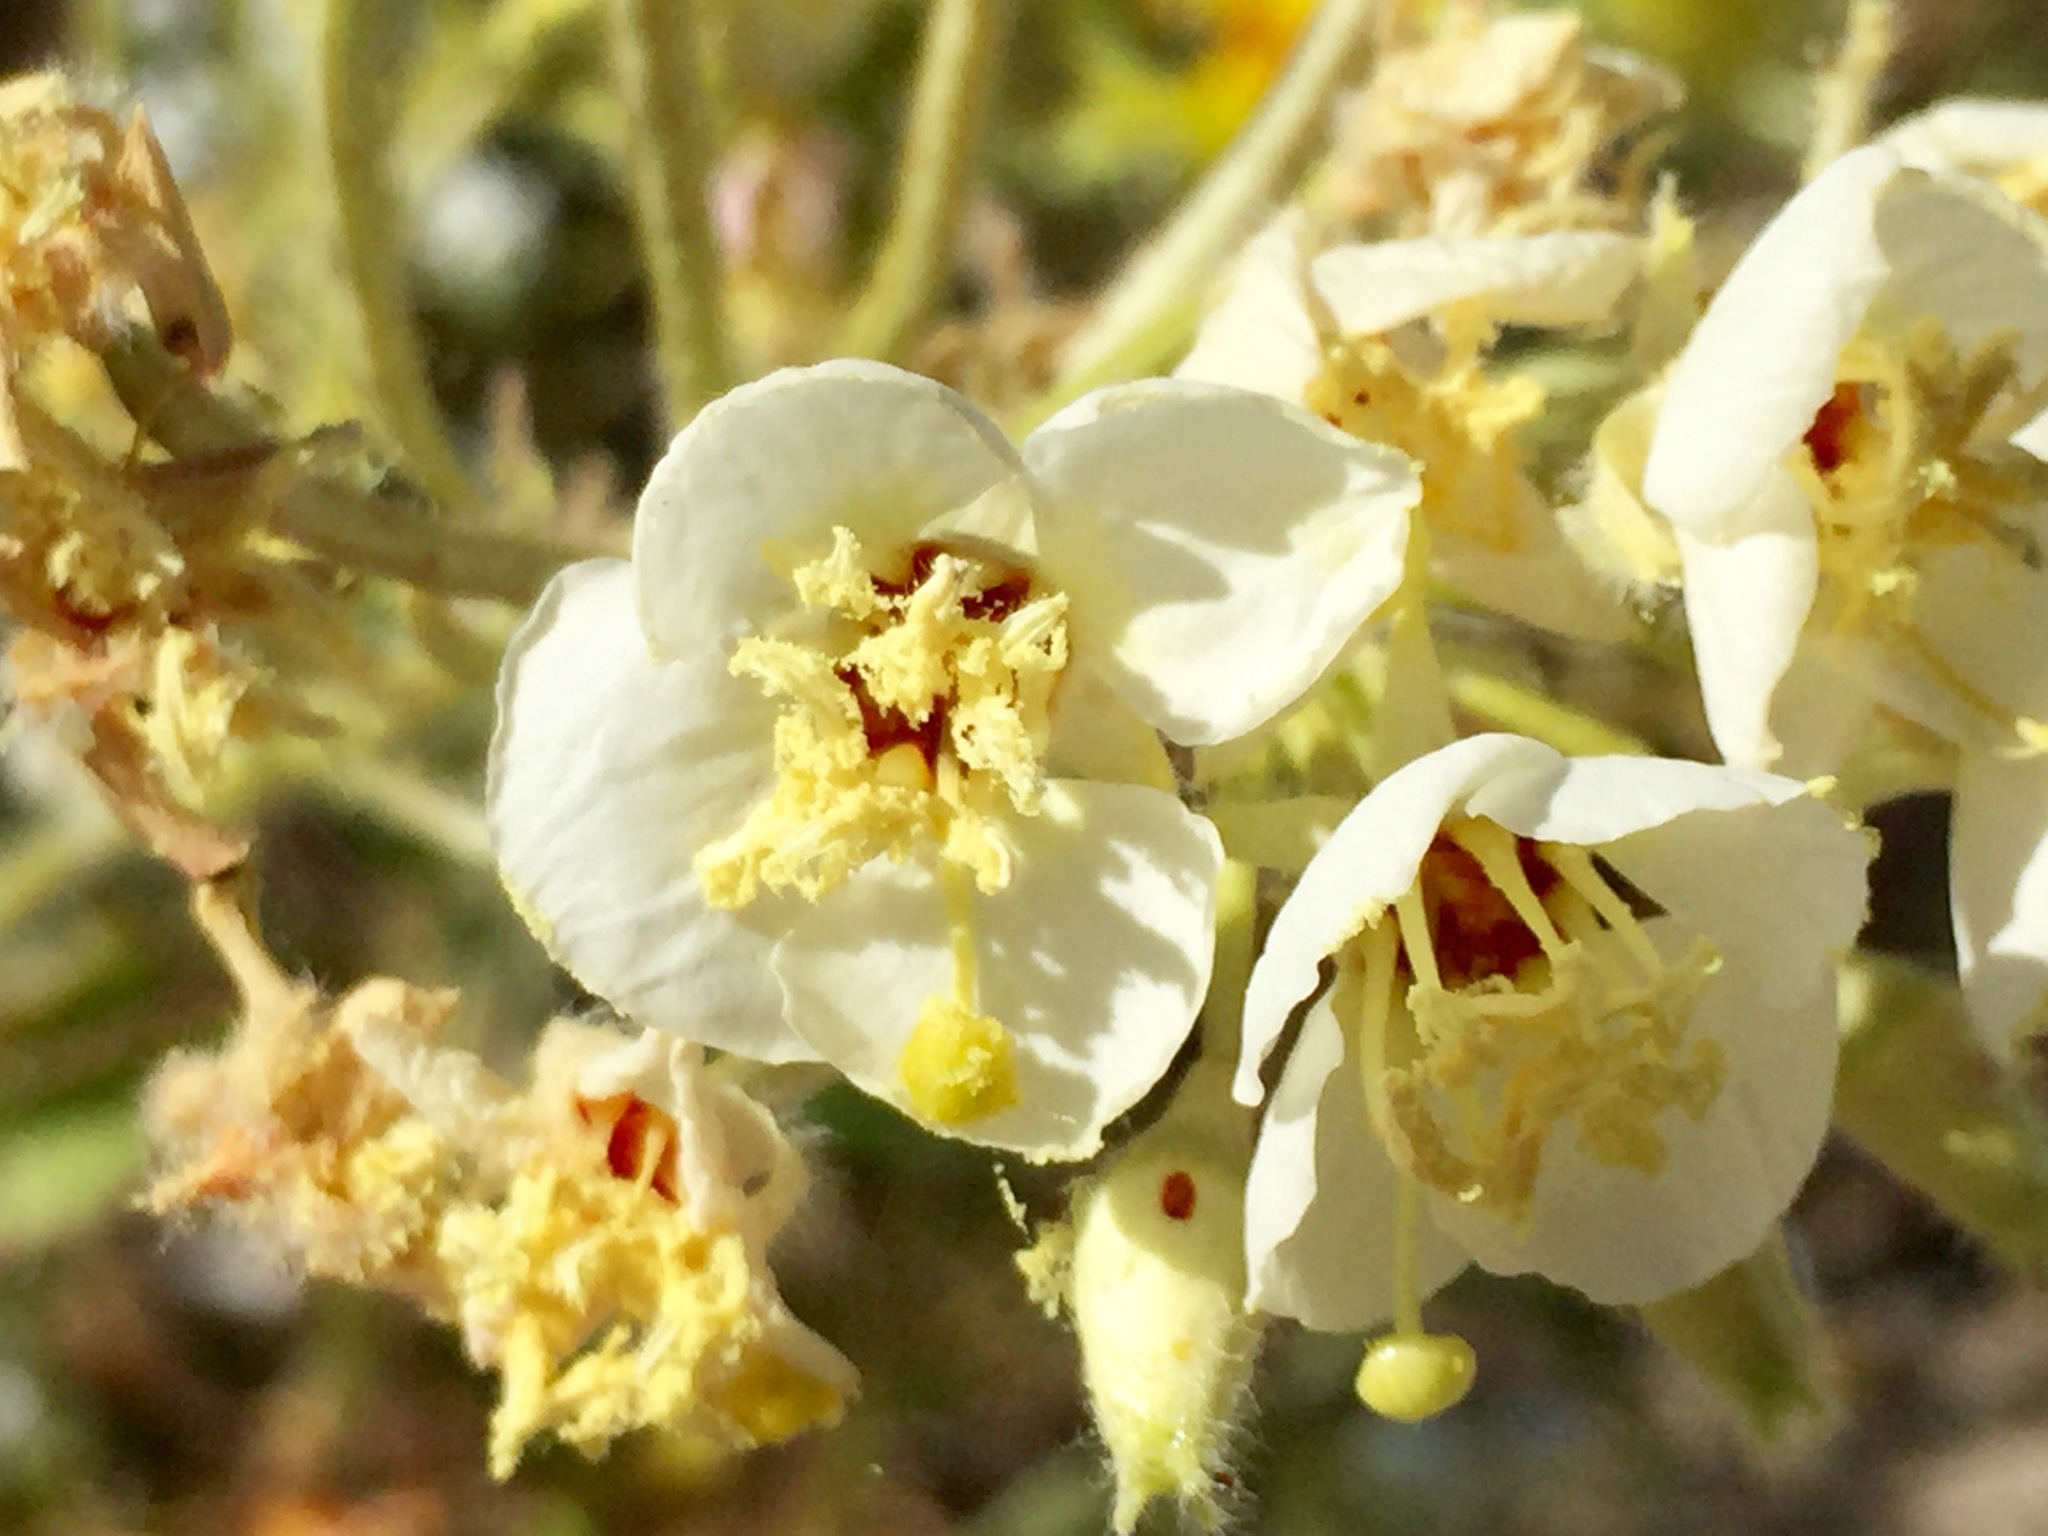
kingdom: Plantae
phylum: Tracheophyta
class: Magnoliopsida
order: Myrtales
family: Onagraceae
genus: Chylismia
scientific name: Chylismia claviformis
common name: Browneyes
